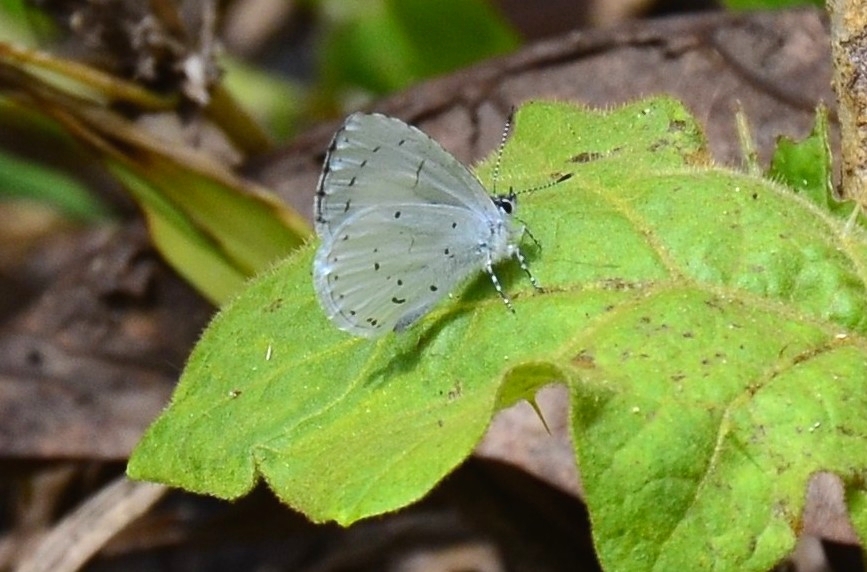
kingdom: Animalia
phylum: Arthropoda
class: Insecta
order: Lepidoptera
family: Lycaenidae
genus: Udara
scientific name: Udara akasa
